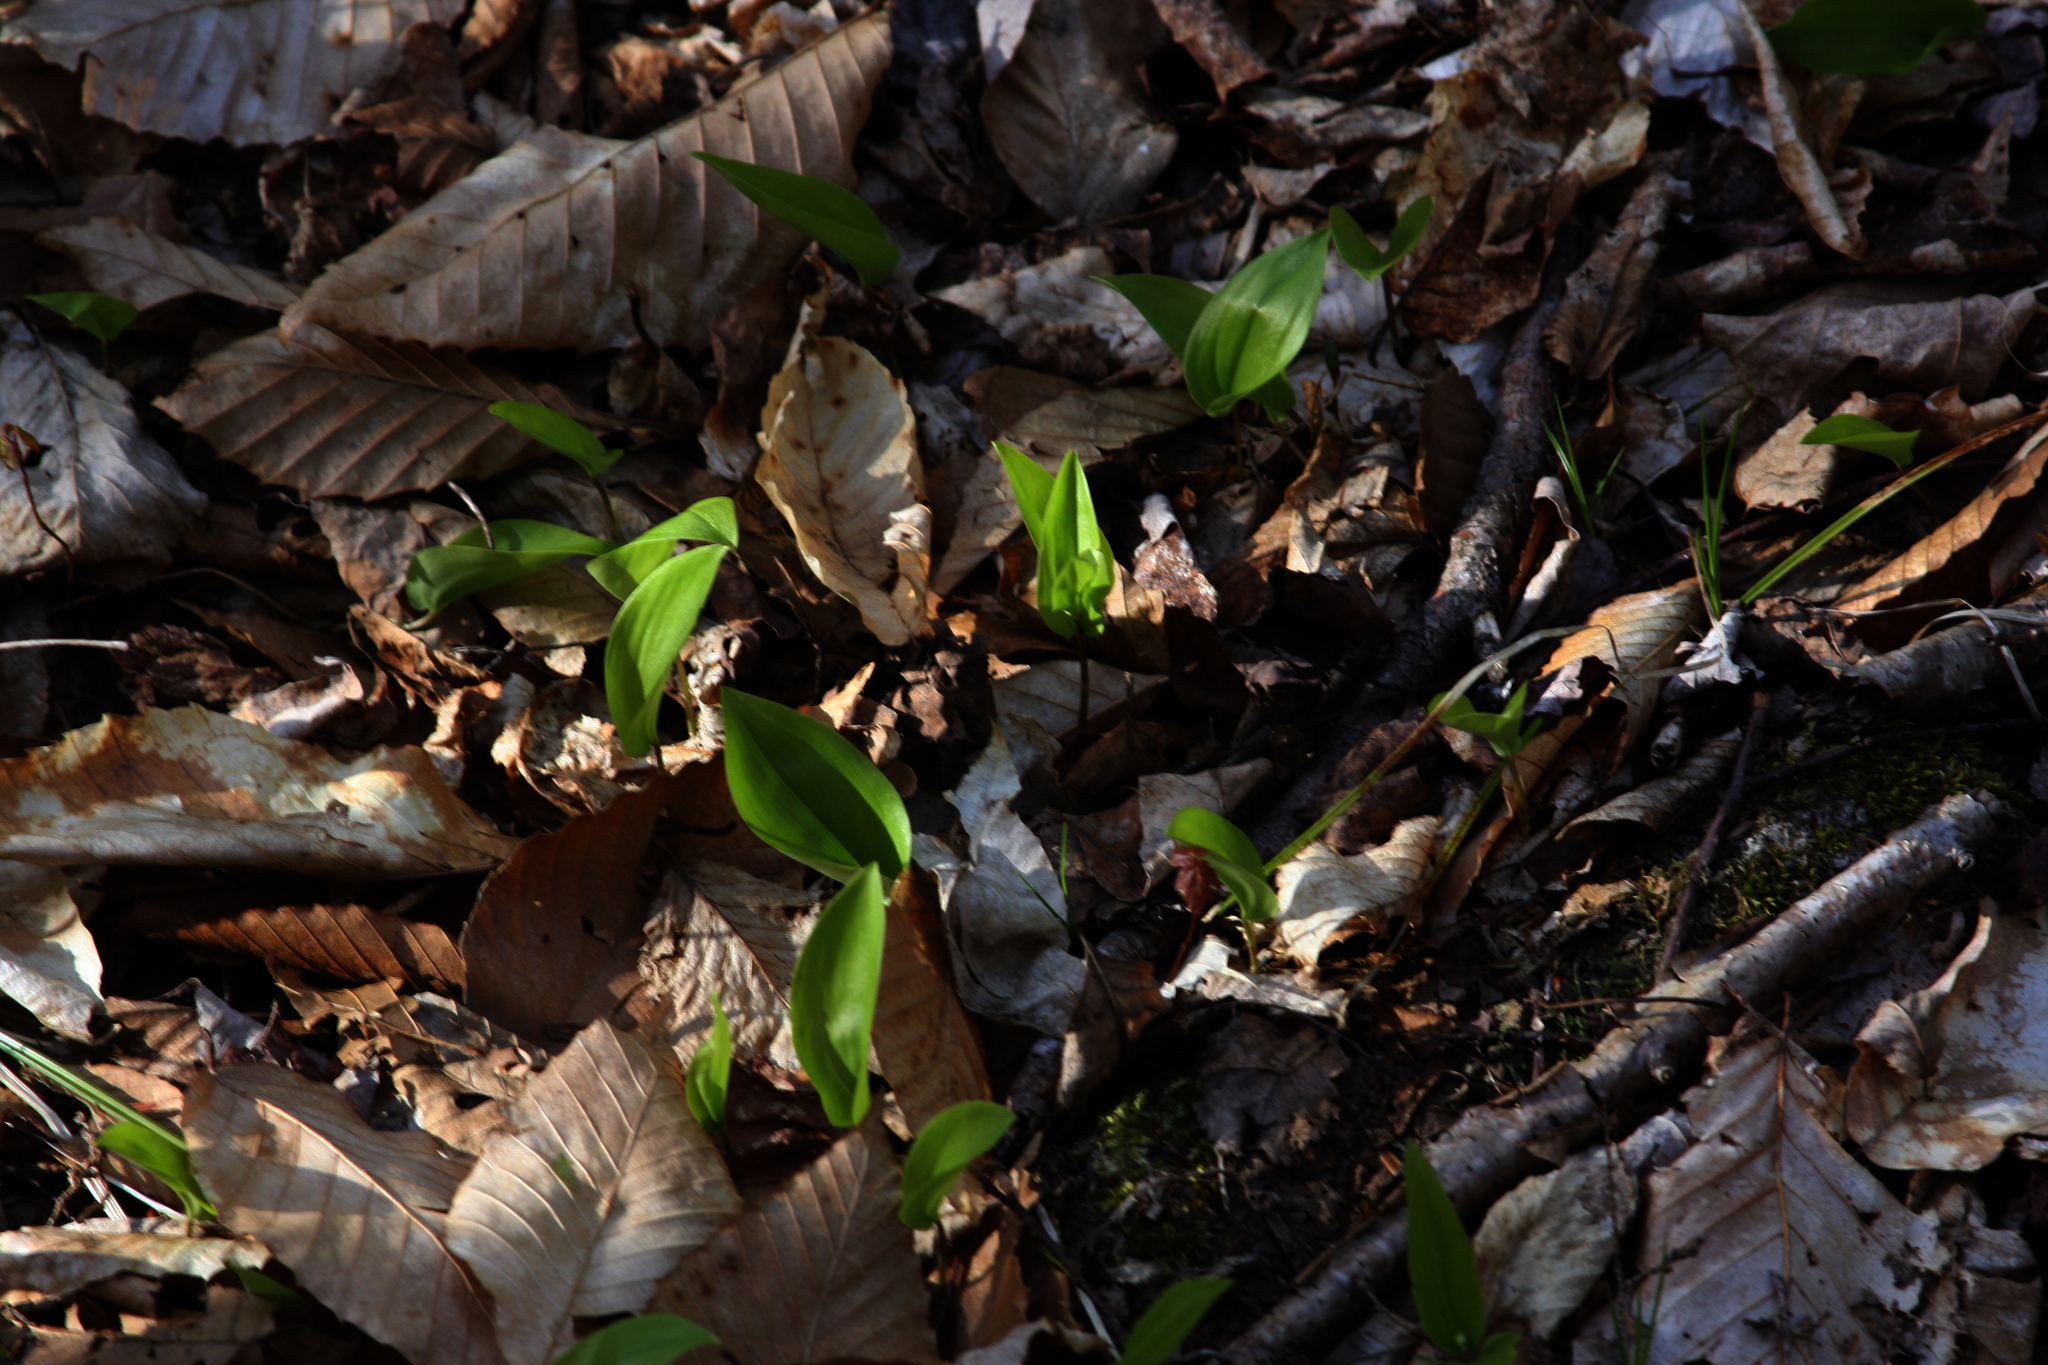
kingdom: Plantae
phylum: Tracheophyta
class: Liliopsida
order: Asparagales
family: Asparagaceae
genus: Maianthemum
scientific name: Maianthemum canadense
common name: False lily-of-the-valley
